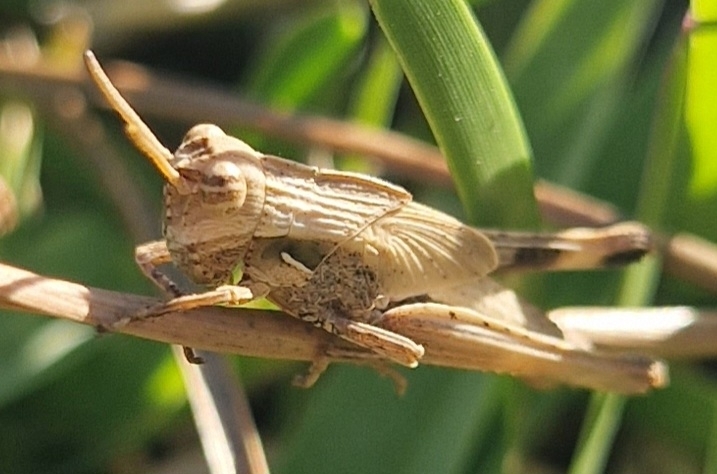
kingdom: Animalia
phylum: Arthropoda
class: Insecta
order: Orthoptera
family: Acrididae
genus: Morphacris
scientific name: Morphacris fasciata
